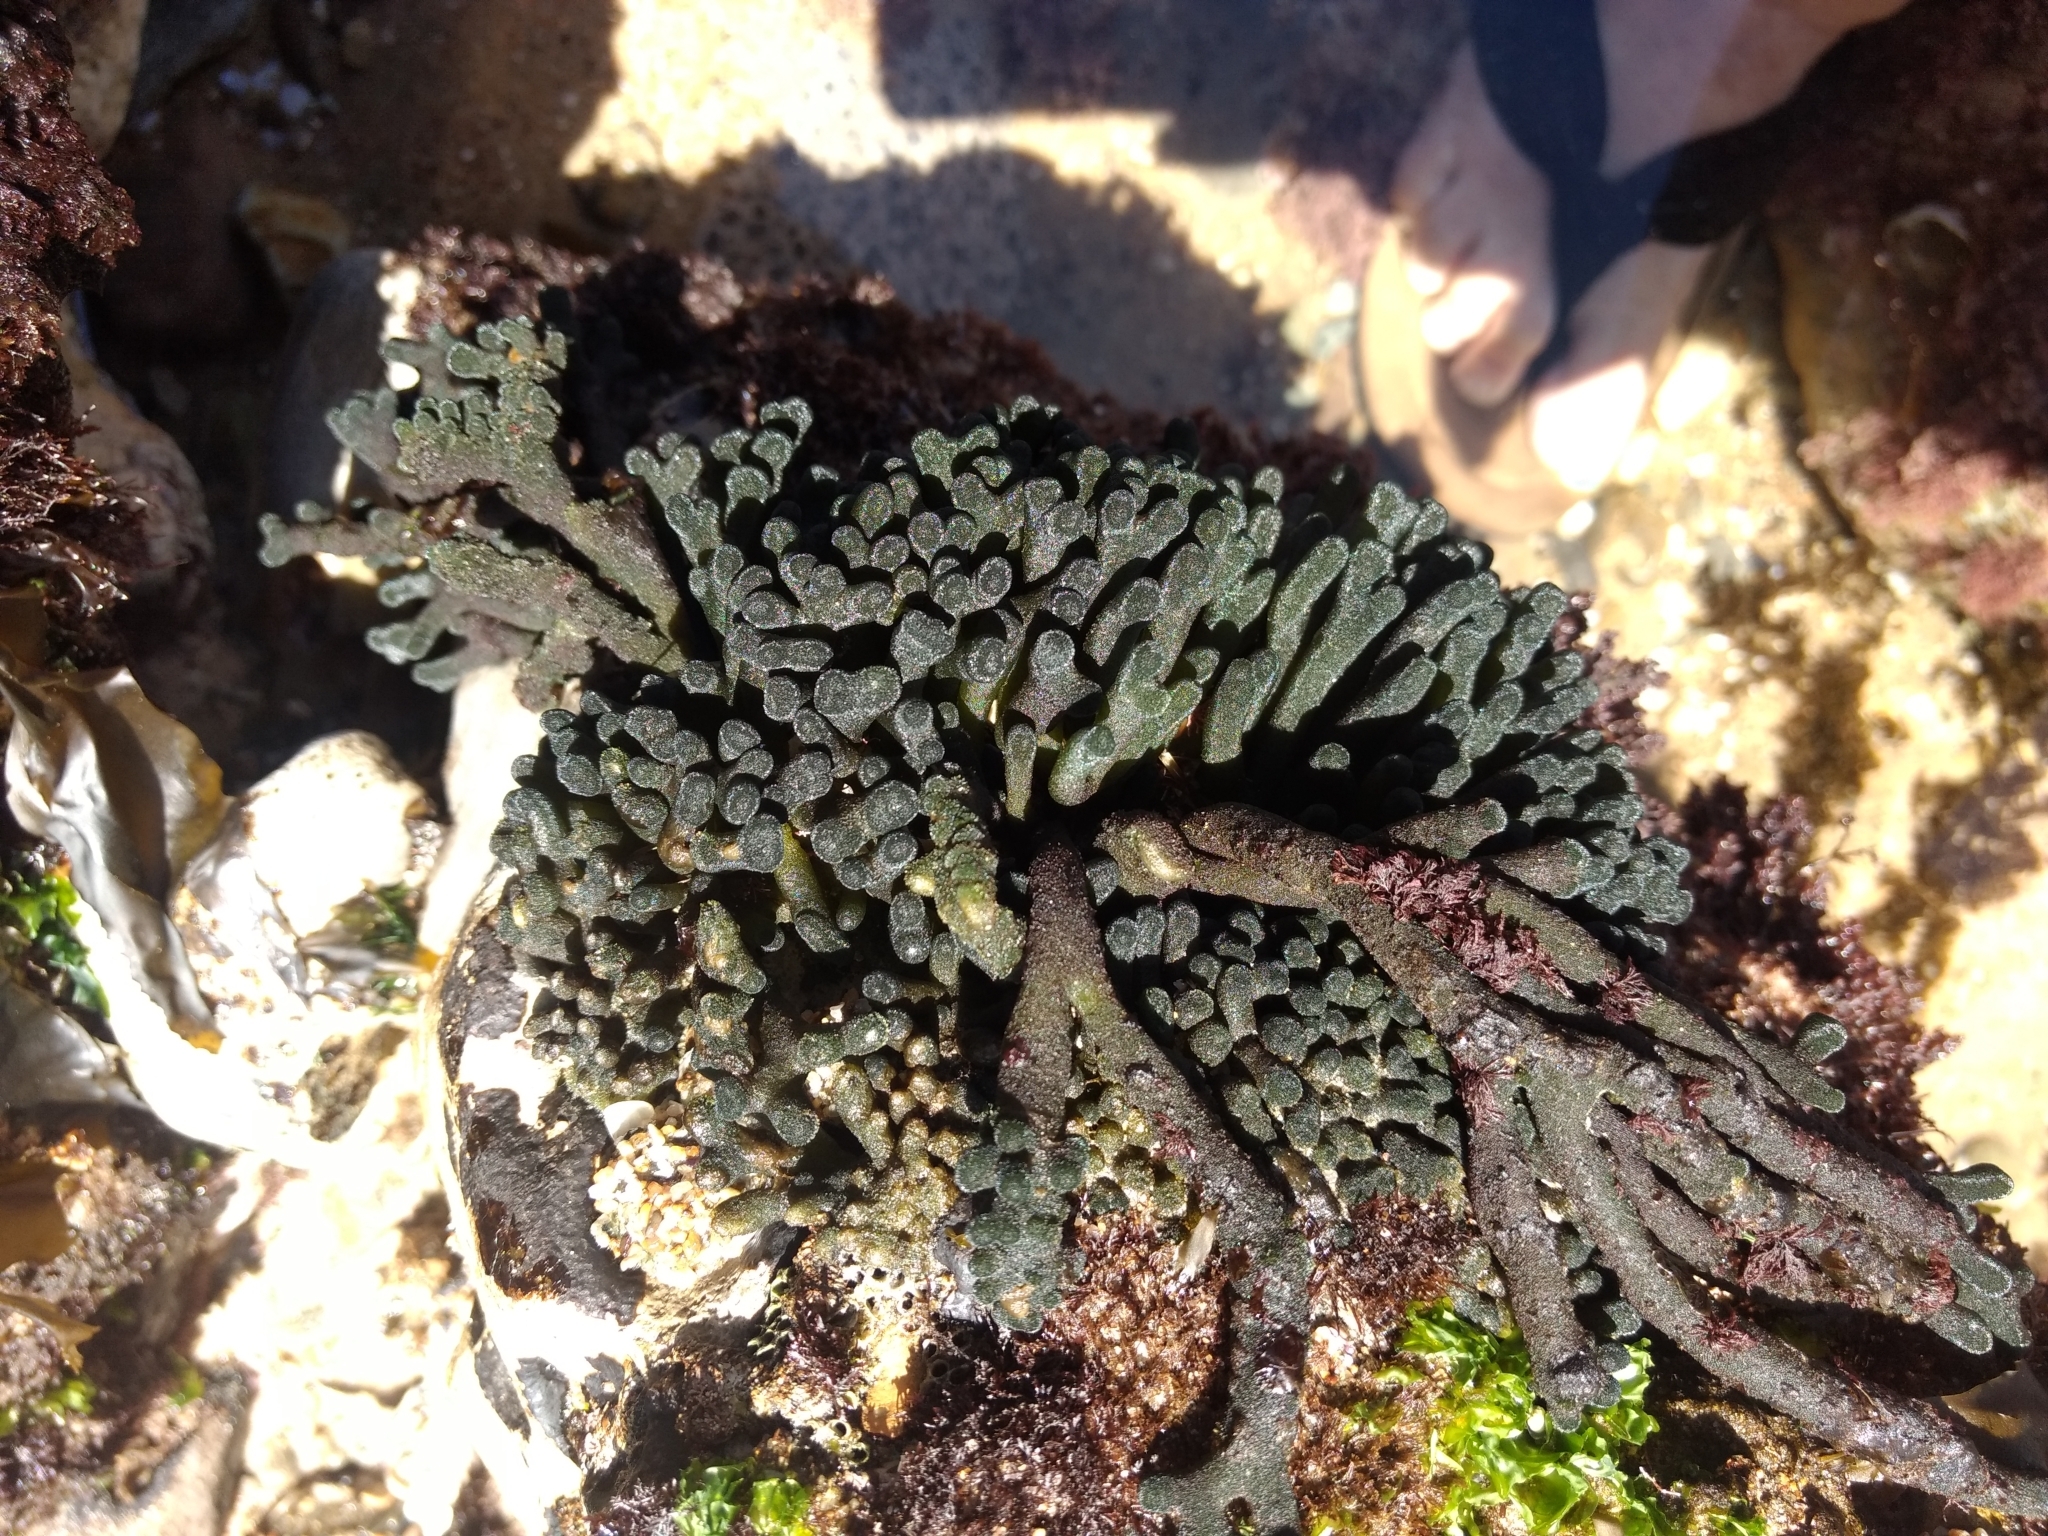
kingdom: Plantae
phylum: Chlorophyta
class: Ulvophyceae
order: Bryopsidales
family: Codiaceae
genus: Codium
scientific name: Codium fragile
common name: Dead man's fingers
